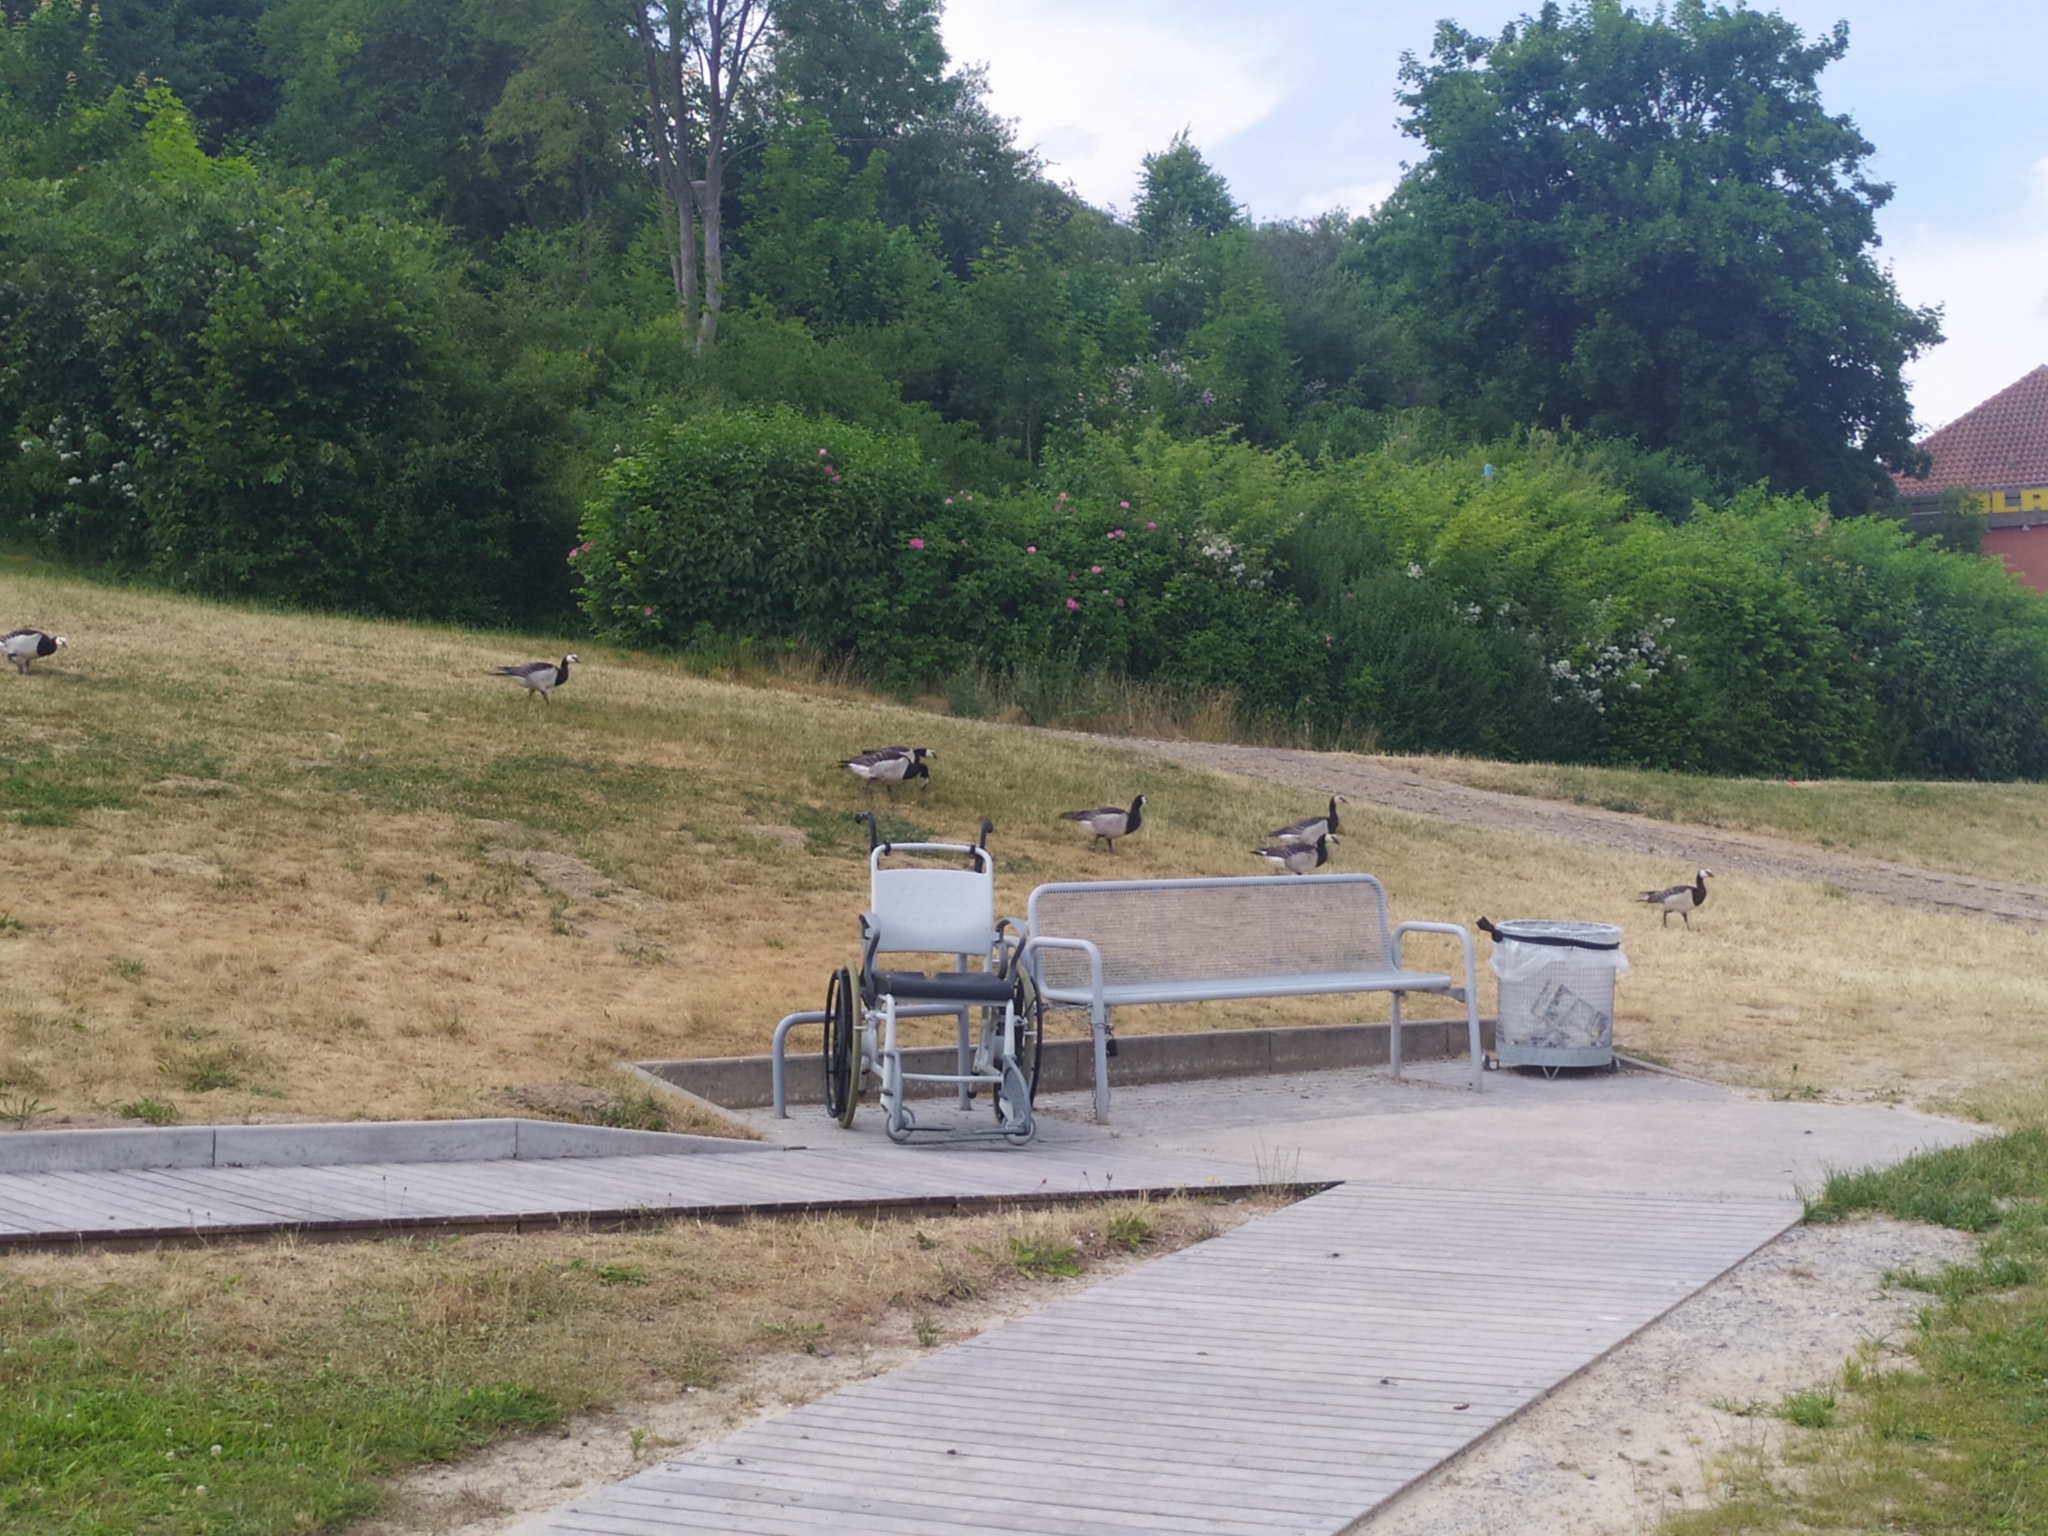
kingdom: Animalia
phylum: Chordata
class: Aves
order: Anseriformes
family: Anatidae
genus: Branta
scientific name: Branta leucopsis
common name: Barnacle goose
